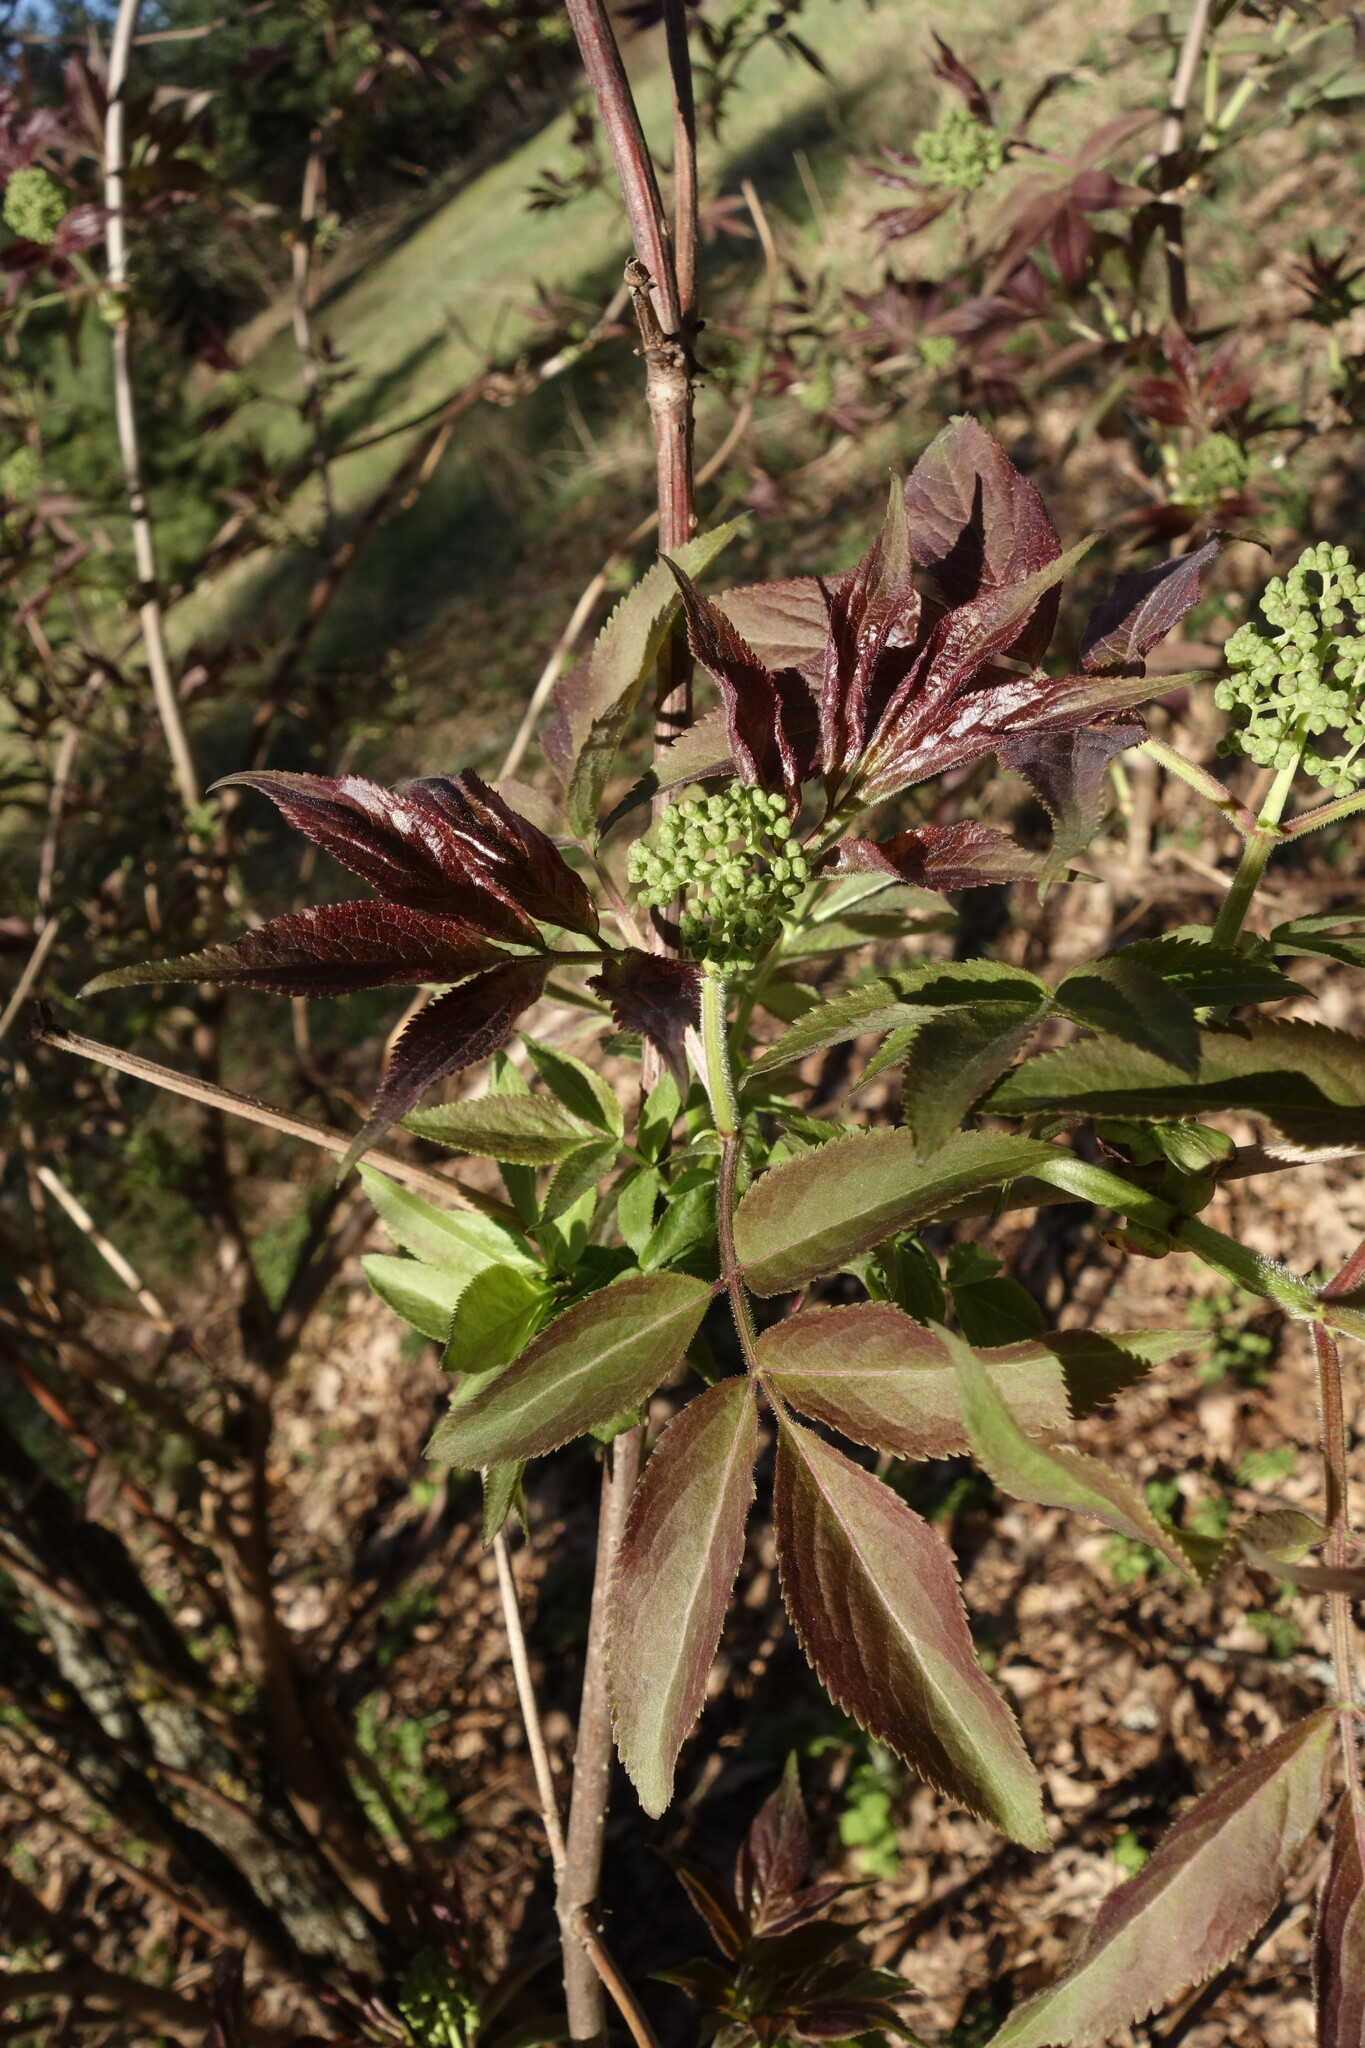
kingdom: Plantae
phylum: Tracheophyta
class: Magnoliopsida
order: Dipsacales
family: Viburnaceae
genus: Sambucus
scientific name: Sambucus racemosa
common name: Red-berried elder
